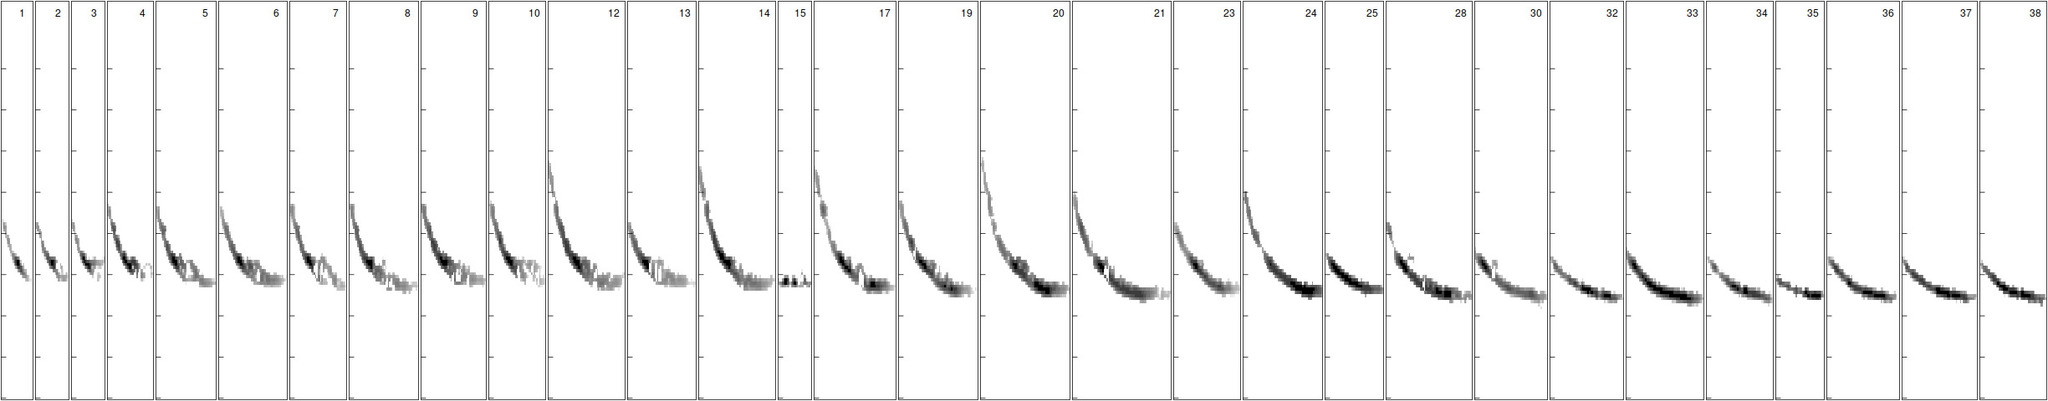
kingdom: Animalia
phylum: Chordata
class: Mammalia
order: Chiroptera
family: Vespertilionidae
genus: Eptesicus
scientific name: Eptesicus serotinus
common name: Serotine
